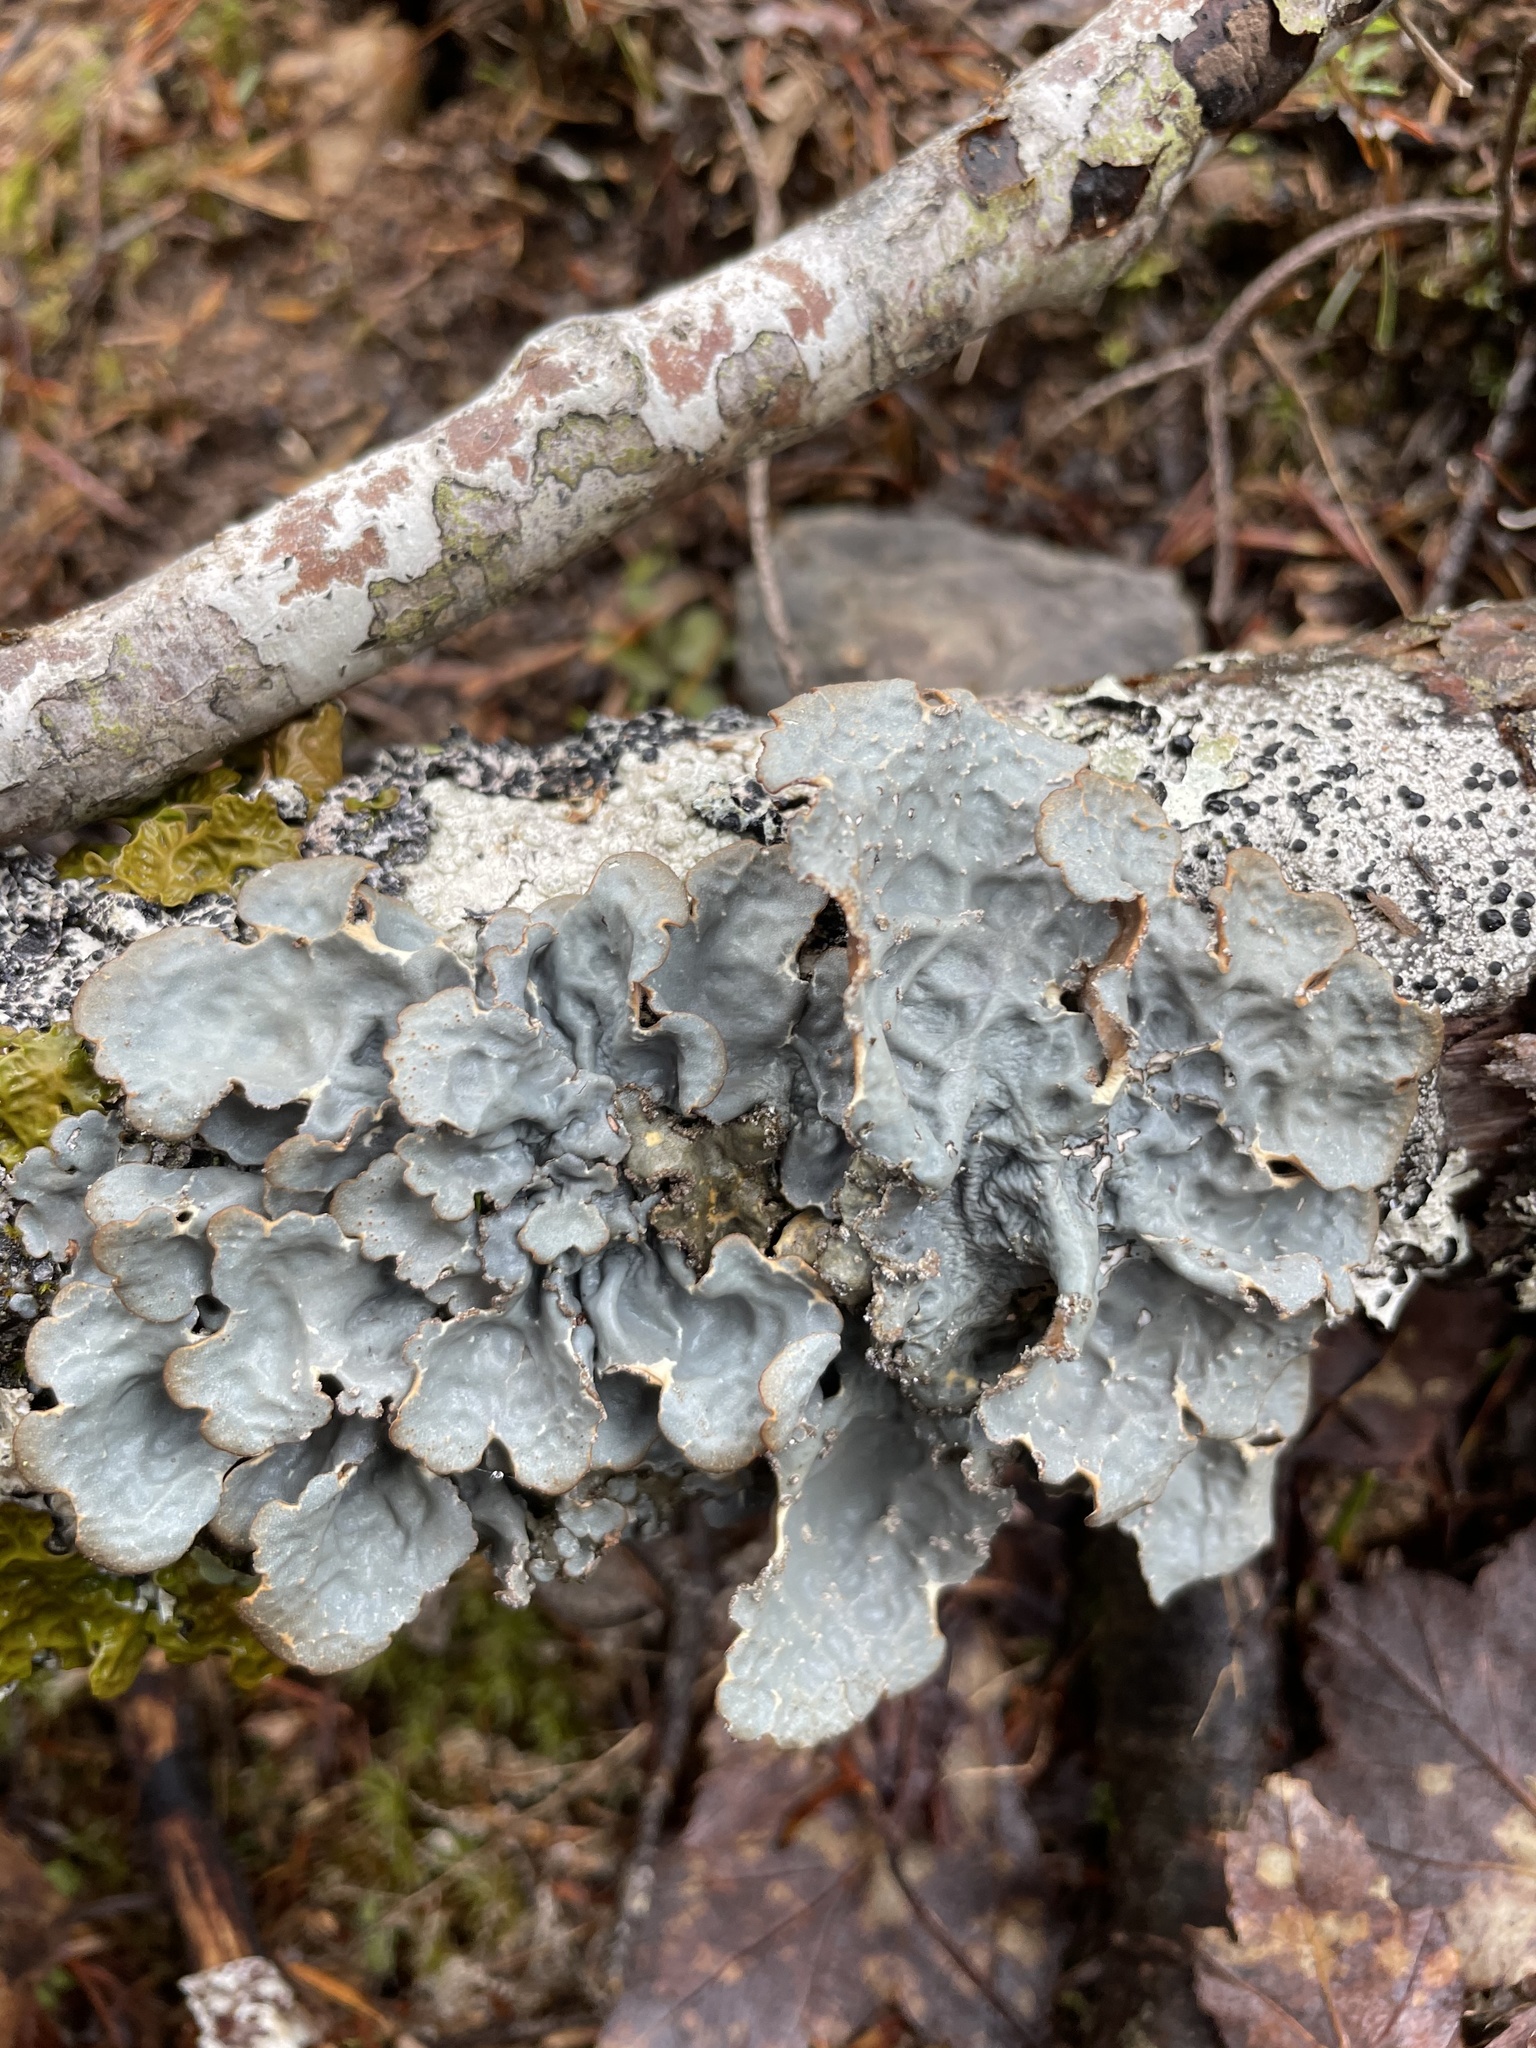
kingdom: Fungi
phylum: Ascomycota
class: Lecanoromycetes
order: Peltigerales
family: Lobariaceae
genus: Lobarina
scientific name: Lobarina scrobiculata
